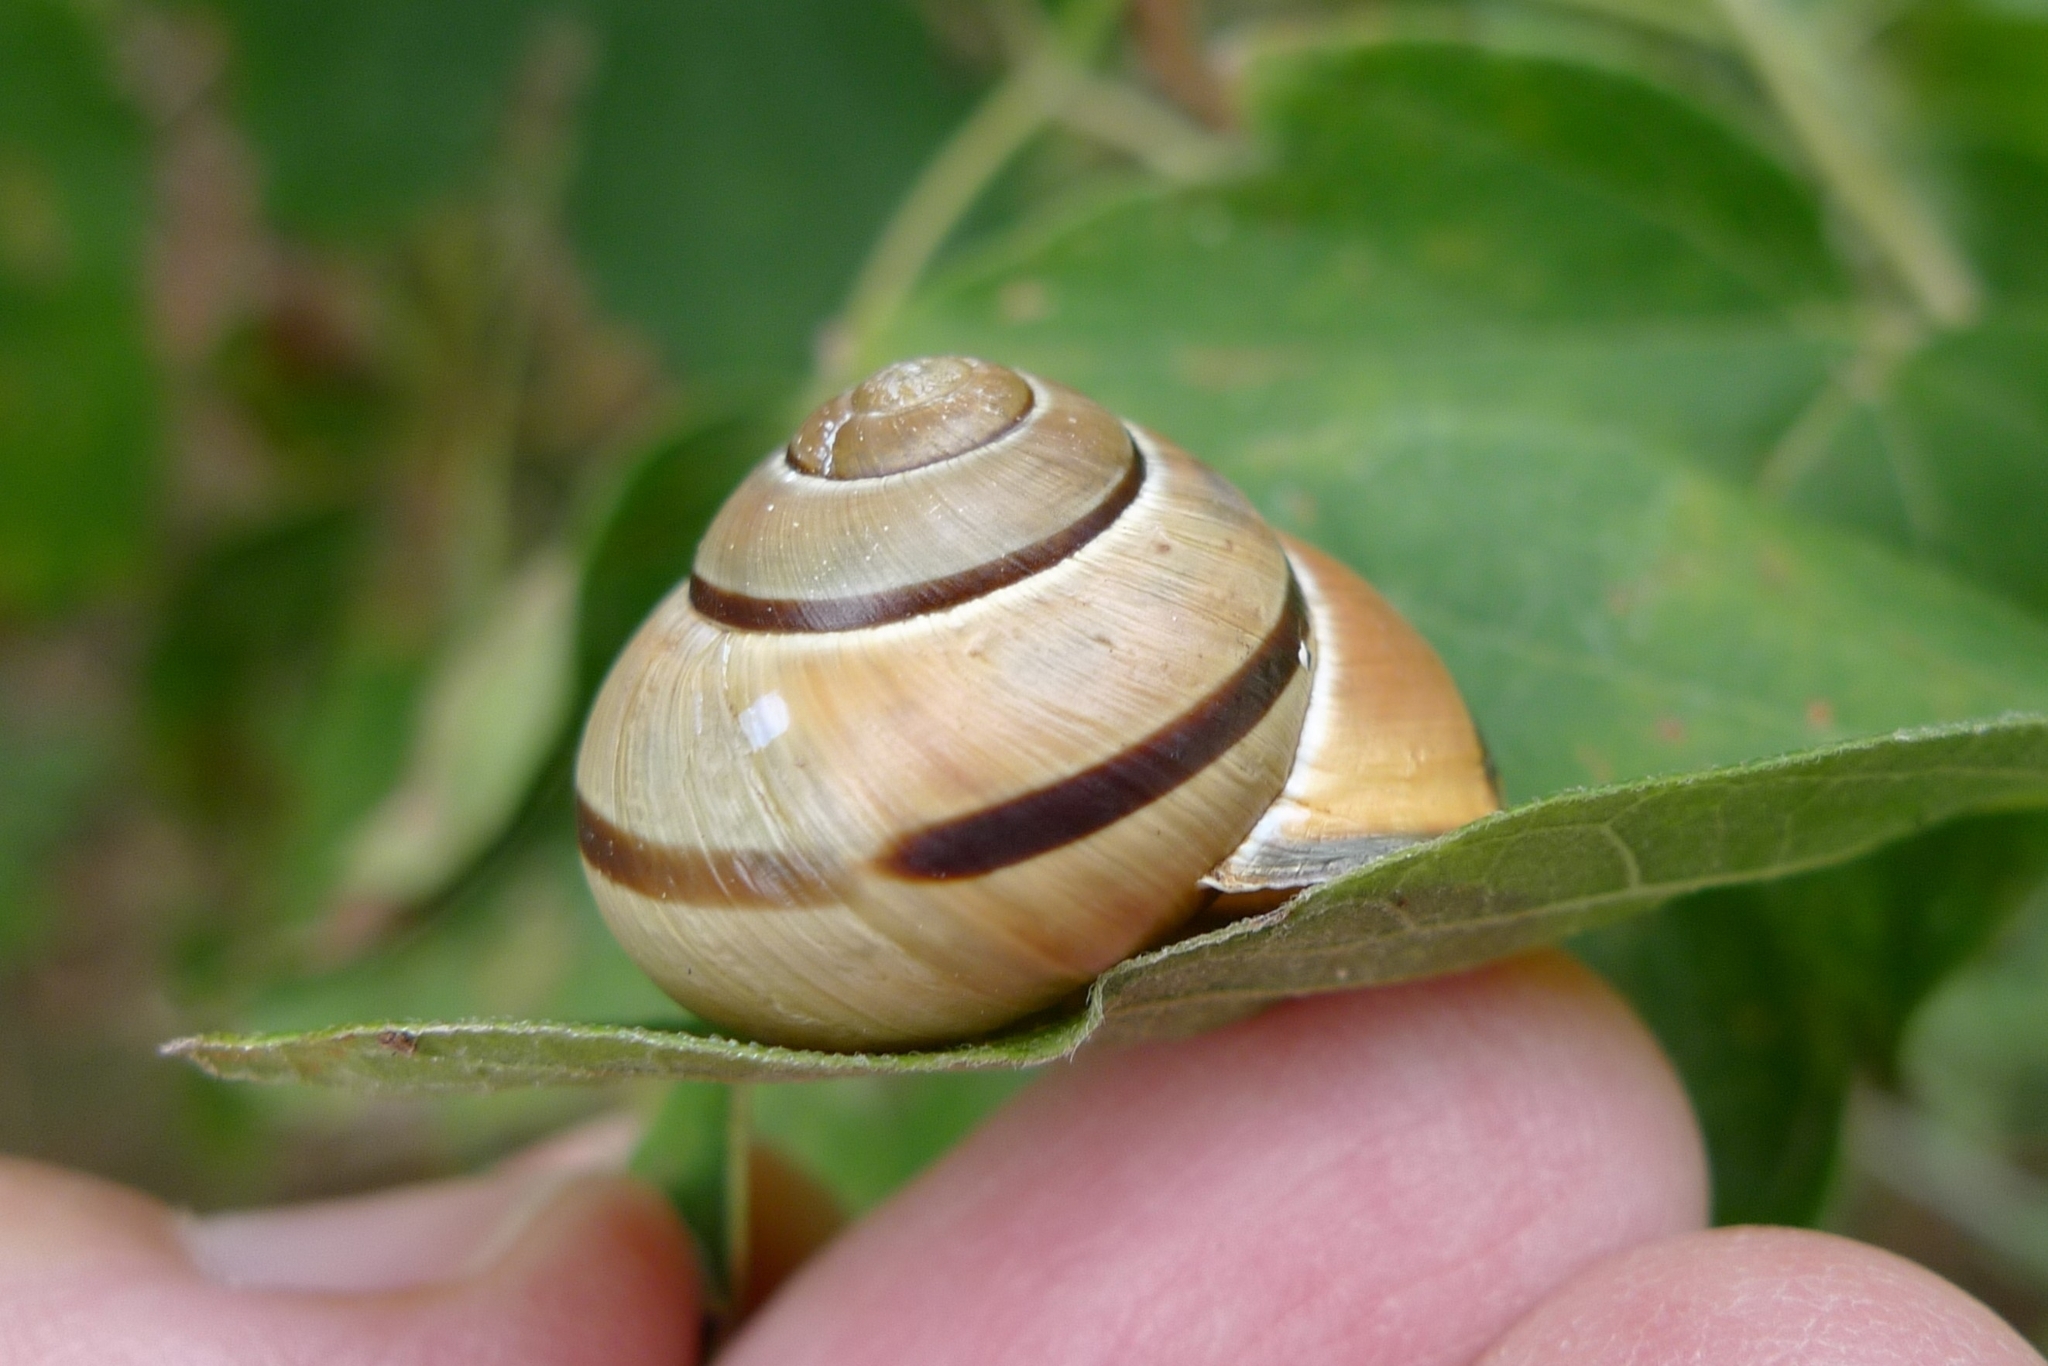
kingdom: Animalia
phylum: Mollusca
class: Gastropoda
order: Stylommatophora
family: Helicidae
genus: Cepaea
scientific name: Cepaea nemoralis
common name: Grovesnail
